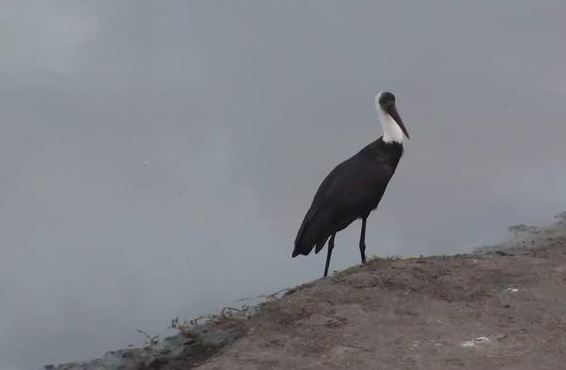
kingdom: Animalia
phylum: Chordata
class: Aves
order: Ciconiiformes
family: Ciconiidae
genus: Ciconia
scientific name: Ciconia microscelis
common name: African woollyneck
